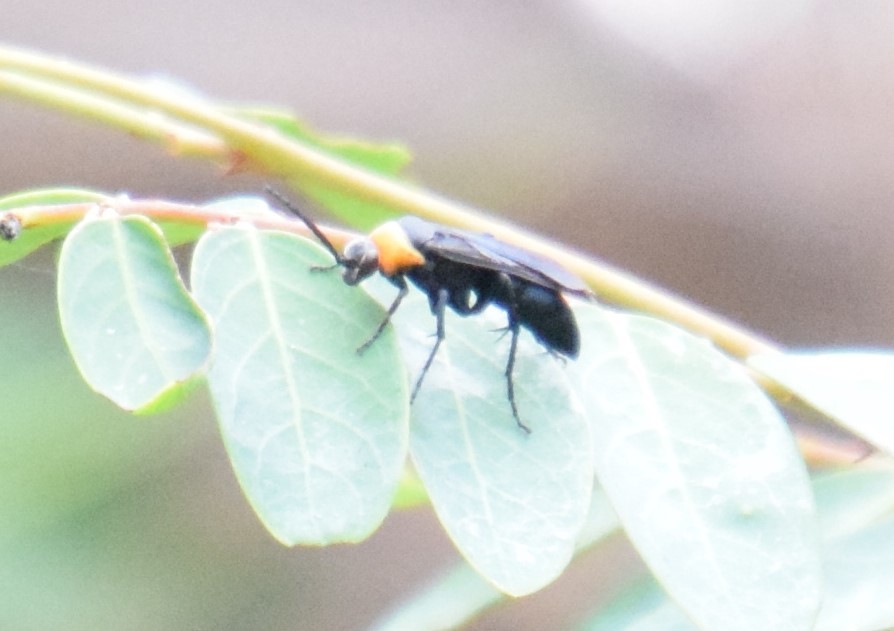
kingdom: Animalia
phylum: Arthropoda
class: Insecta
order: Hymenoptera
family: Pompilidae
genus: Ferreola
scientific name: Ferreola handschini
